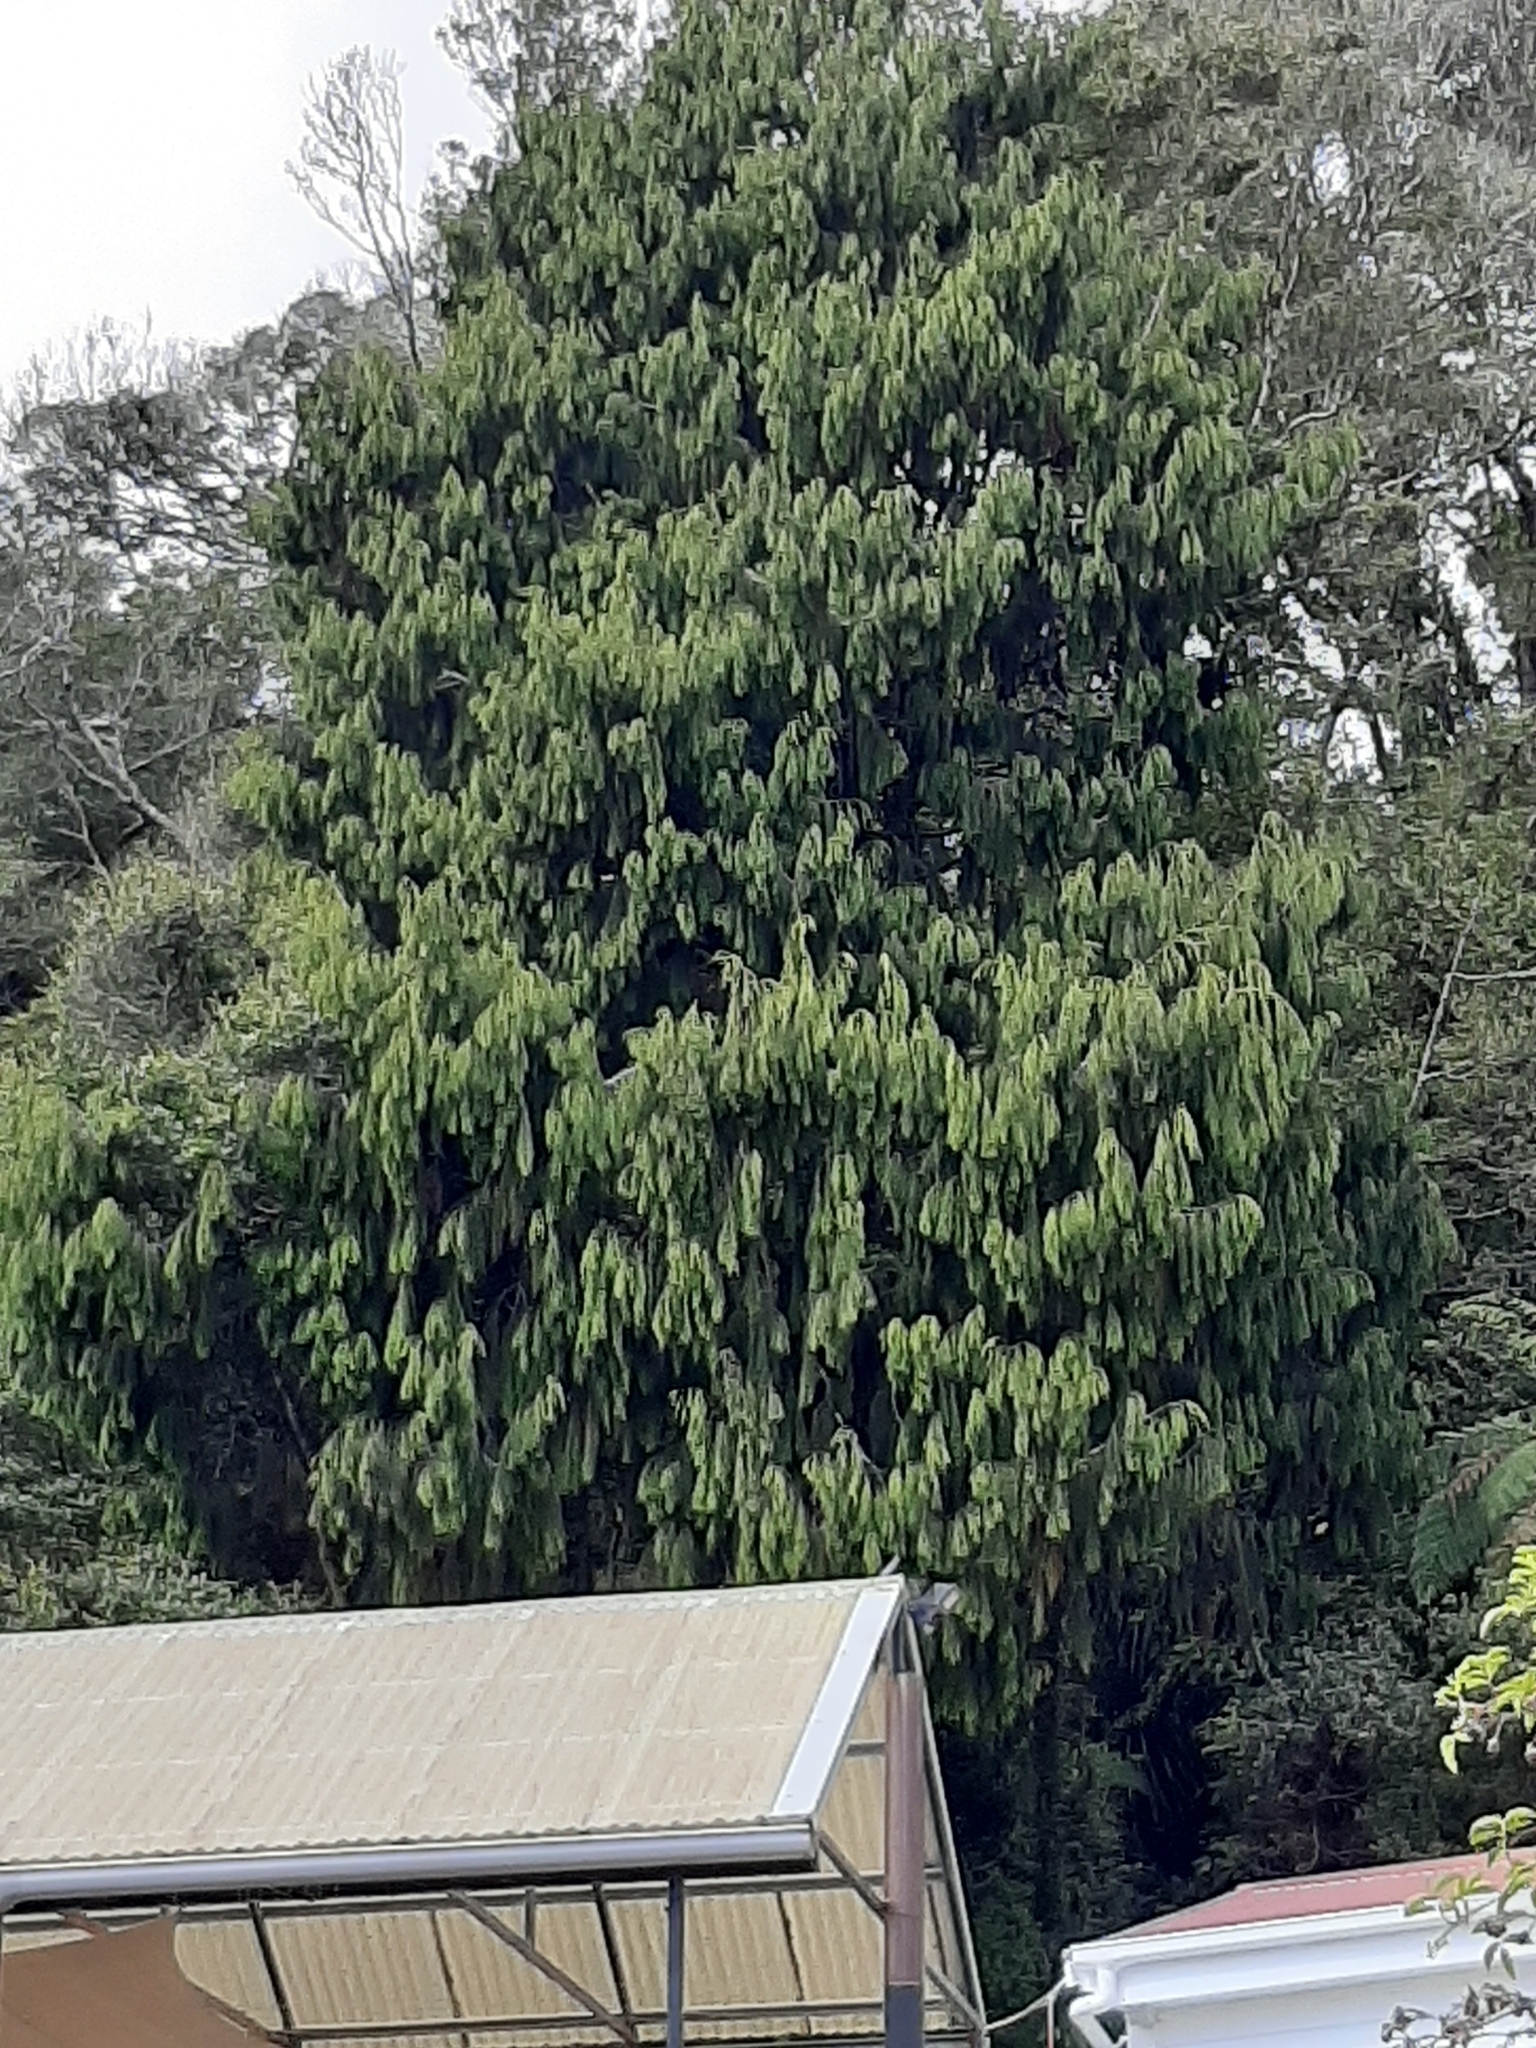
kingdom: Plantae
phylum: Tracheophyta
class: Pinopsida
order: Pinales
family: Podocarpaceae
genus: Dacrydium
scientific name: Dacrydium cupressinum
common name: Red pine
